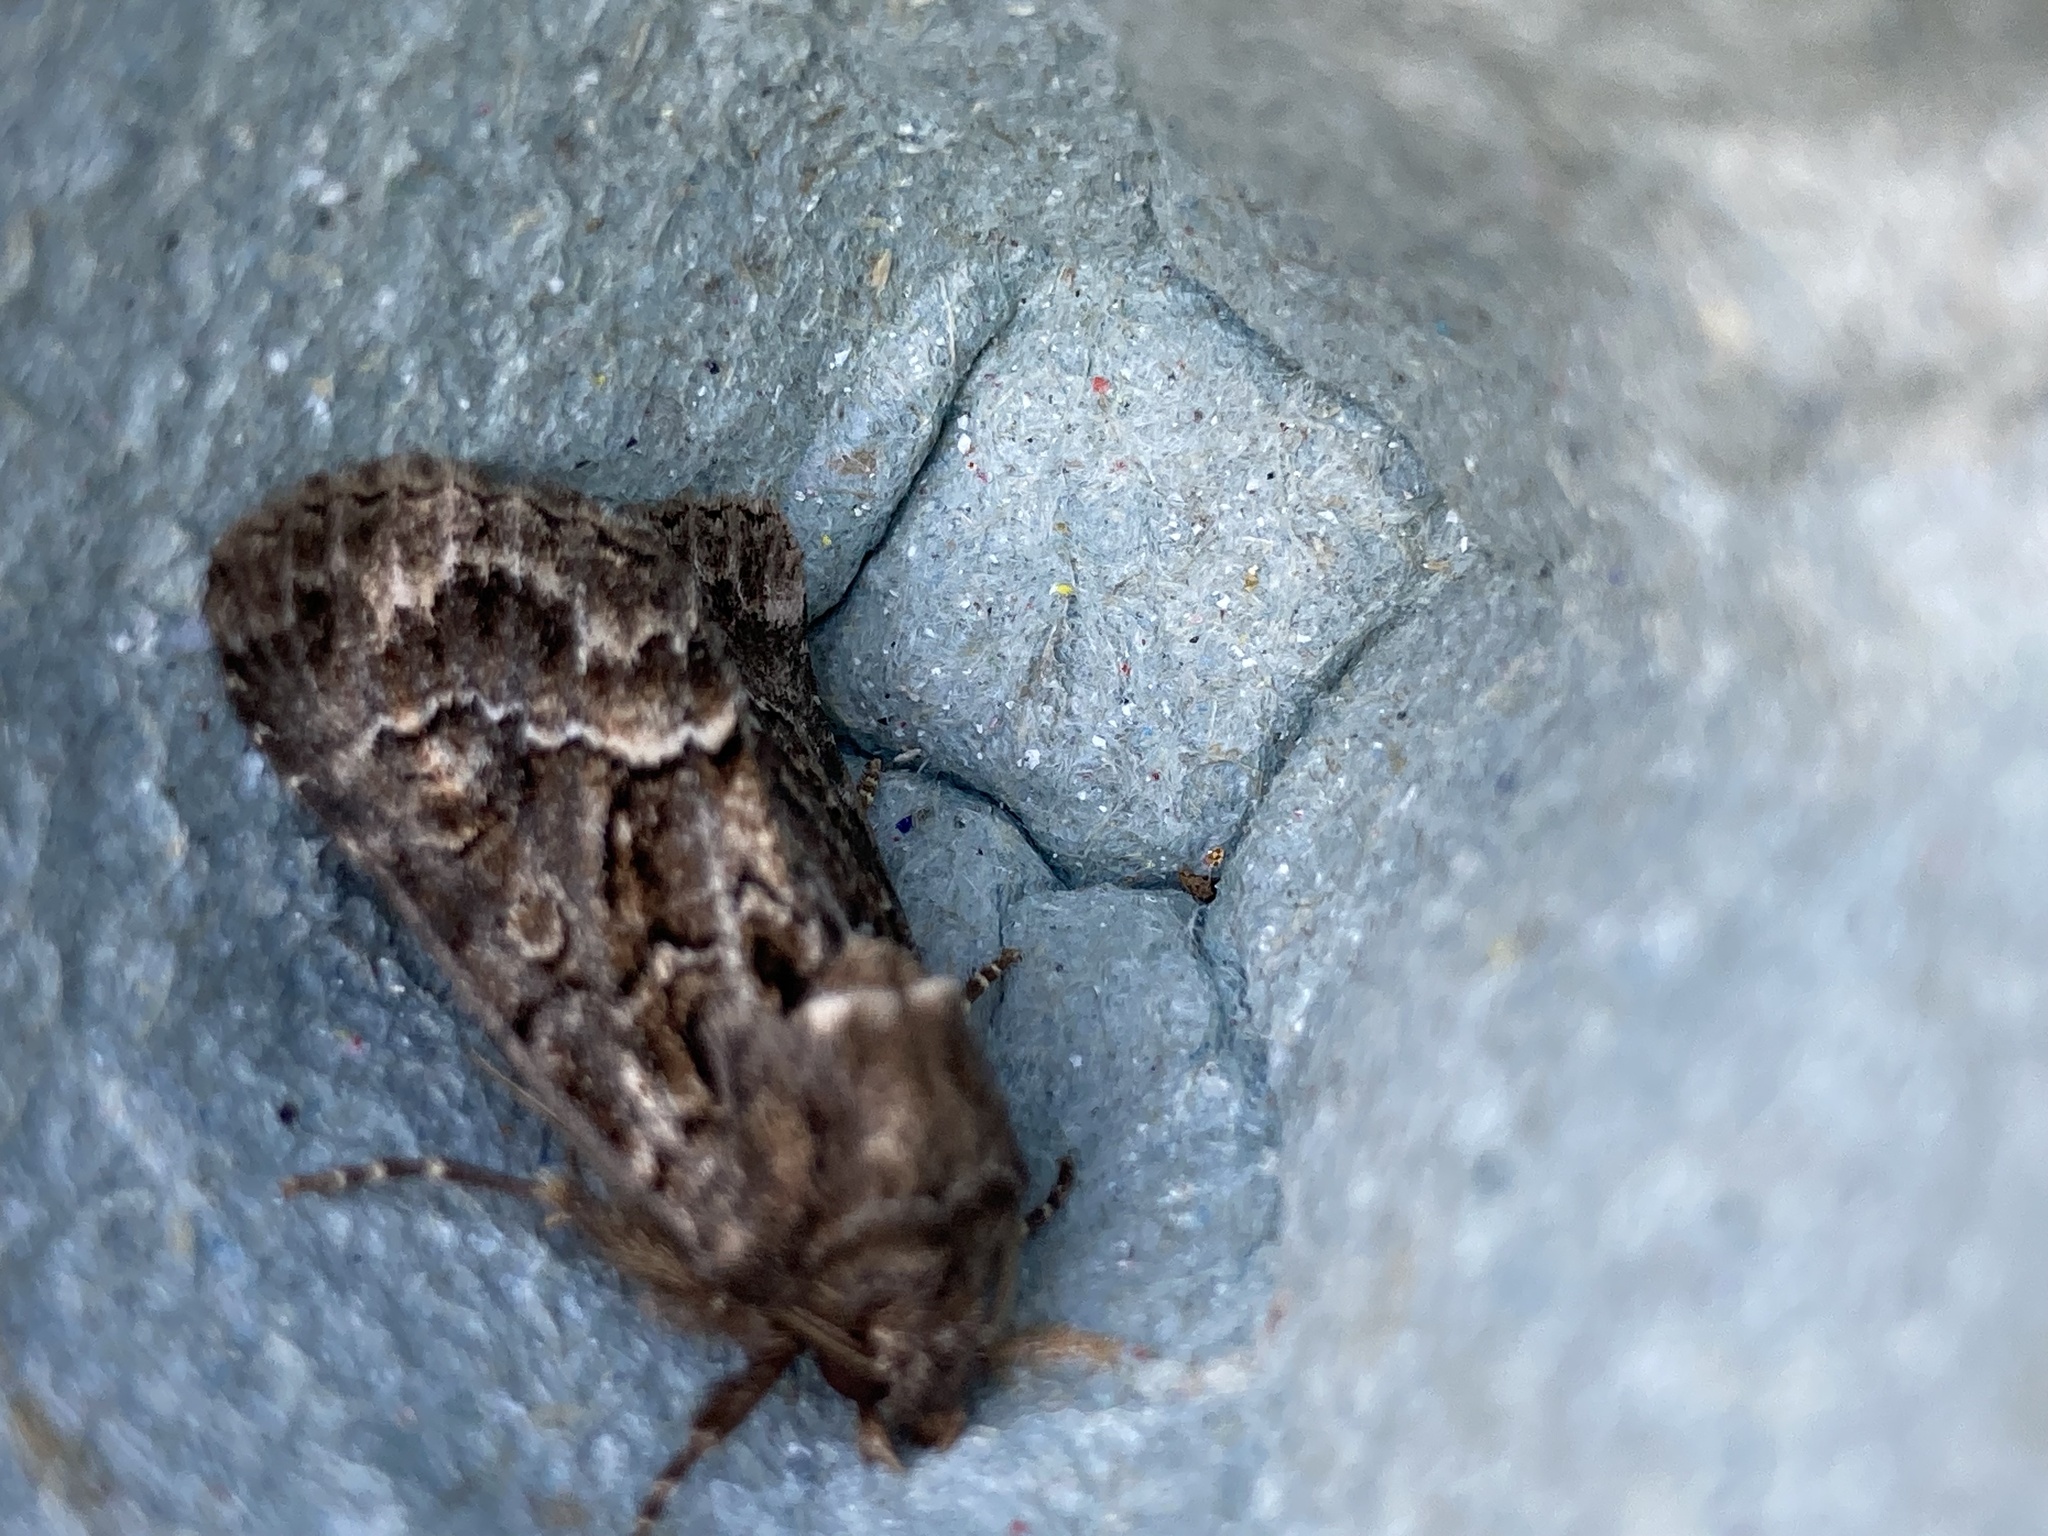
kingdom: Animalia
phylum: Arthropoda
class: Insecta
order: Lepidoptera
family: Noctuidae
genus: Thalpophila
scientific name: Thalpophila matura
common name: Straw underwing
